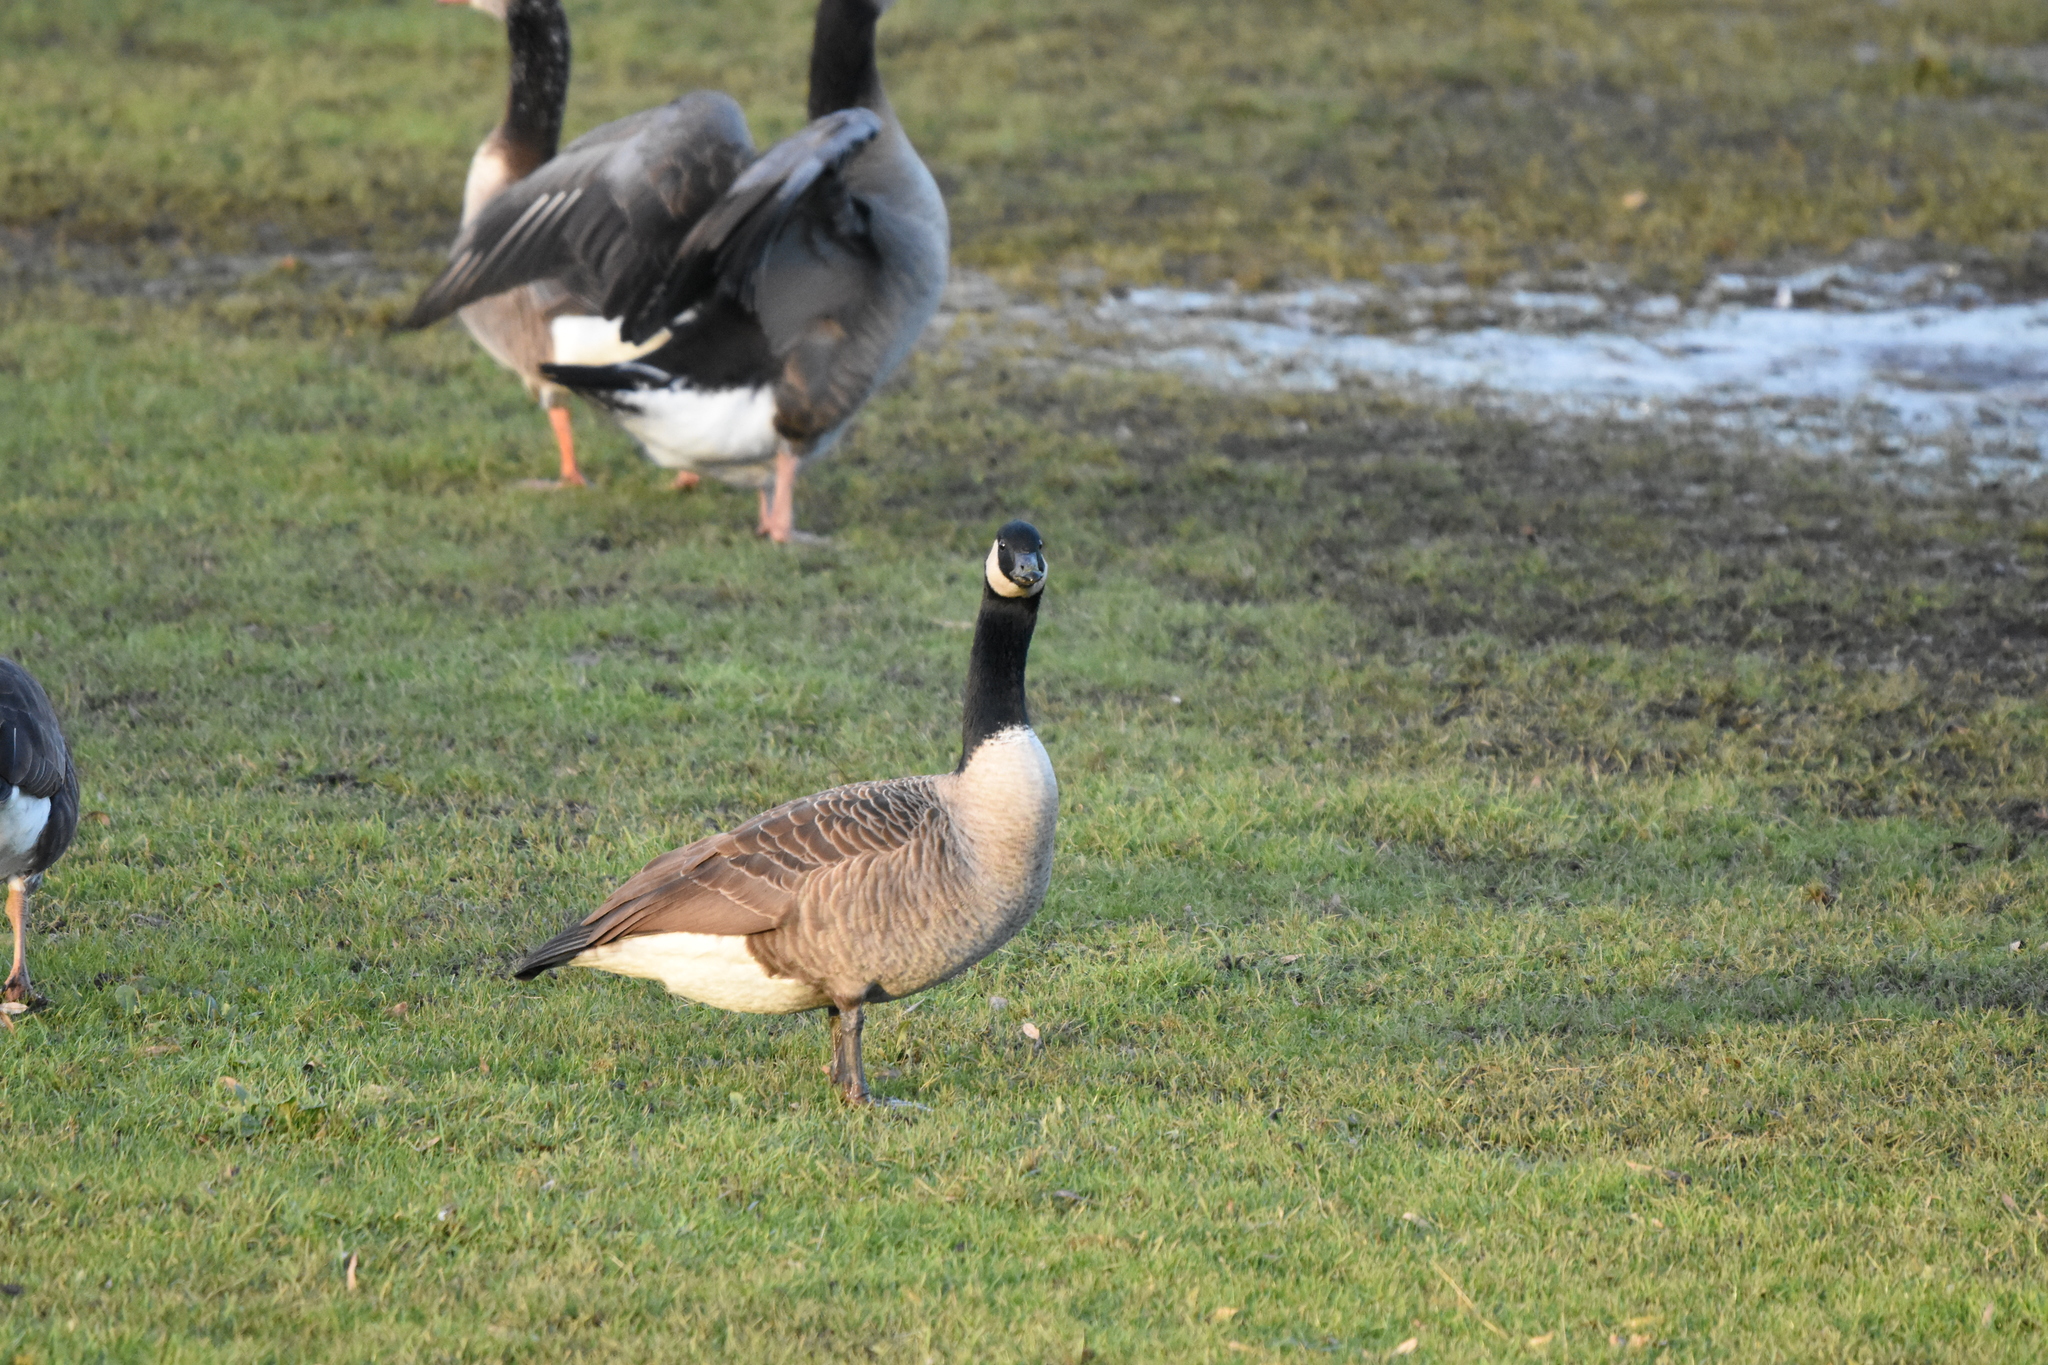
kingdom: Animalia
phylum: Chordata
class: Aves
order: Anseriformes
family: Anatidae
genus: Branta
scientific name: Branta canadensis
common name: Canada goose
